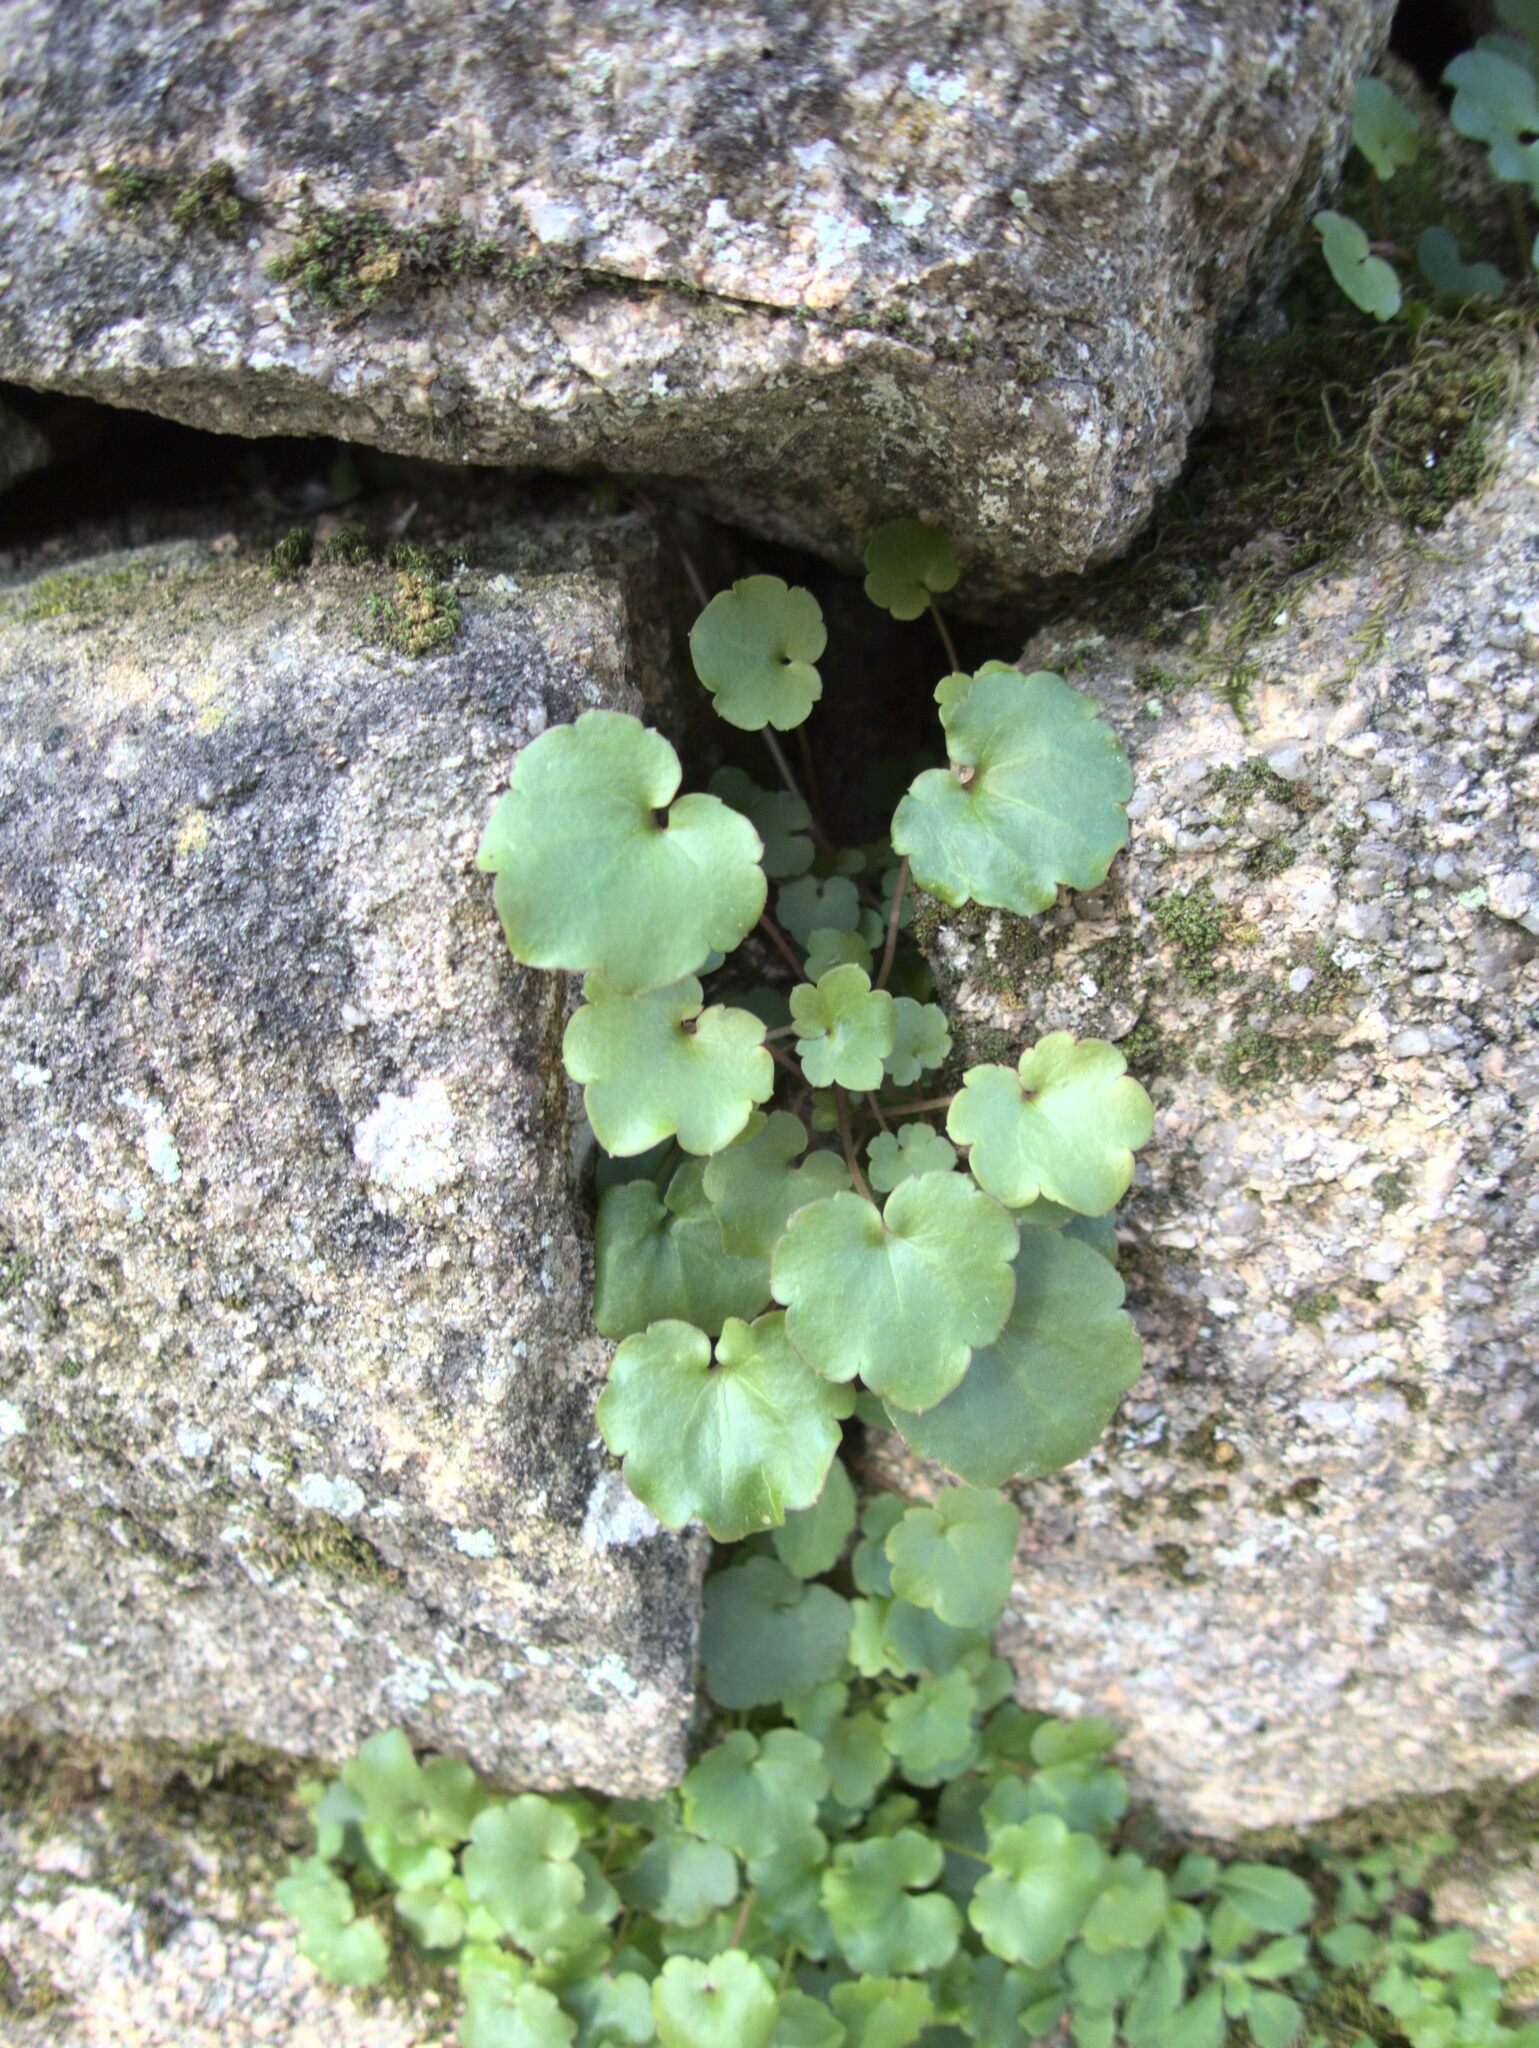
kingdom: Plantae
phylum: Tracheophyta
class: Magnoliopsida
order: Lamiales
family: Plantaginaceae
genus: Cymbalaria
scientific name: Cymbalaria muralis
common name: Ivy-leaved toadflax
